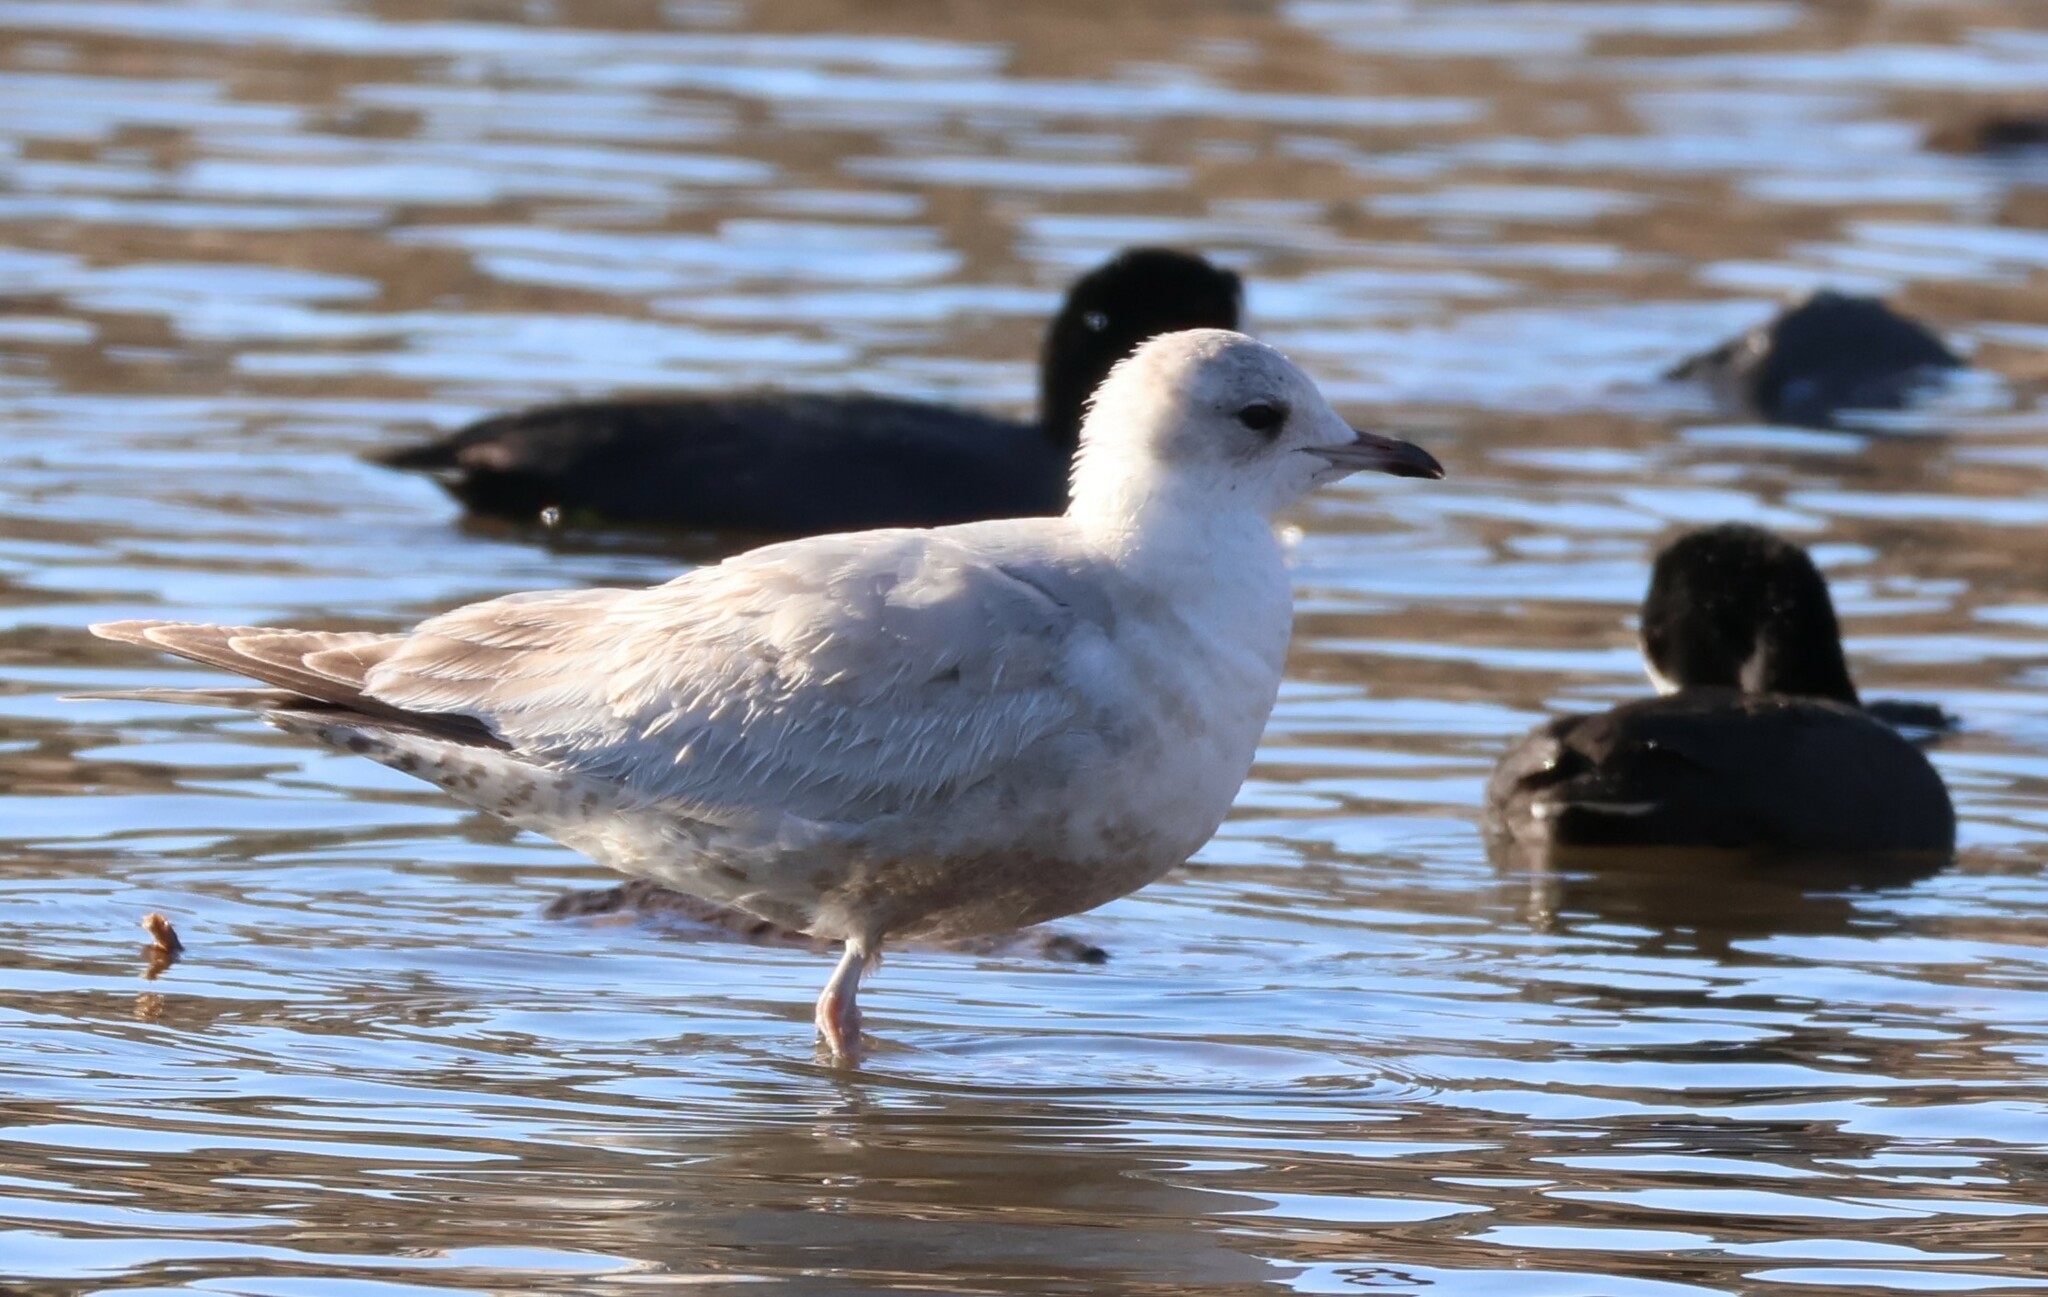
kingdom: Animalia
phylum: Chordata
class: Aves
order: Charadriiformes
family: Laridae
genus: Larus
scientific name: Larus brachyrhynchus
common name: Short-billed gull
